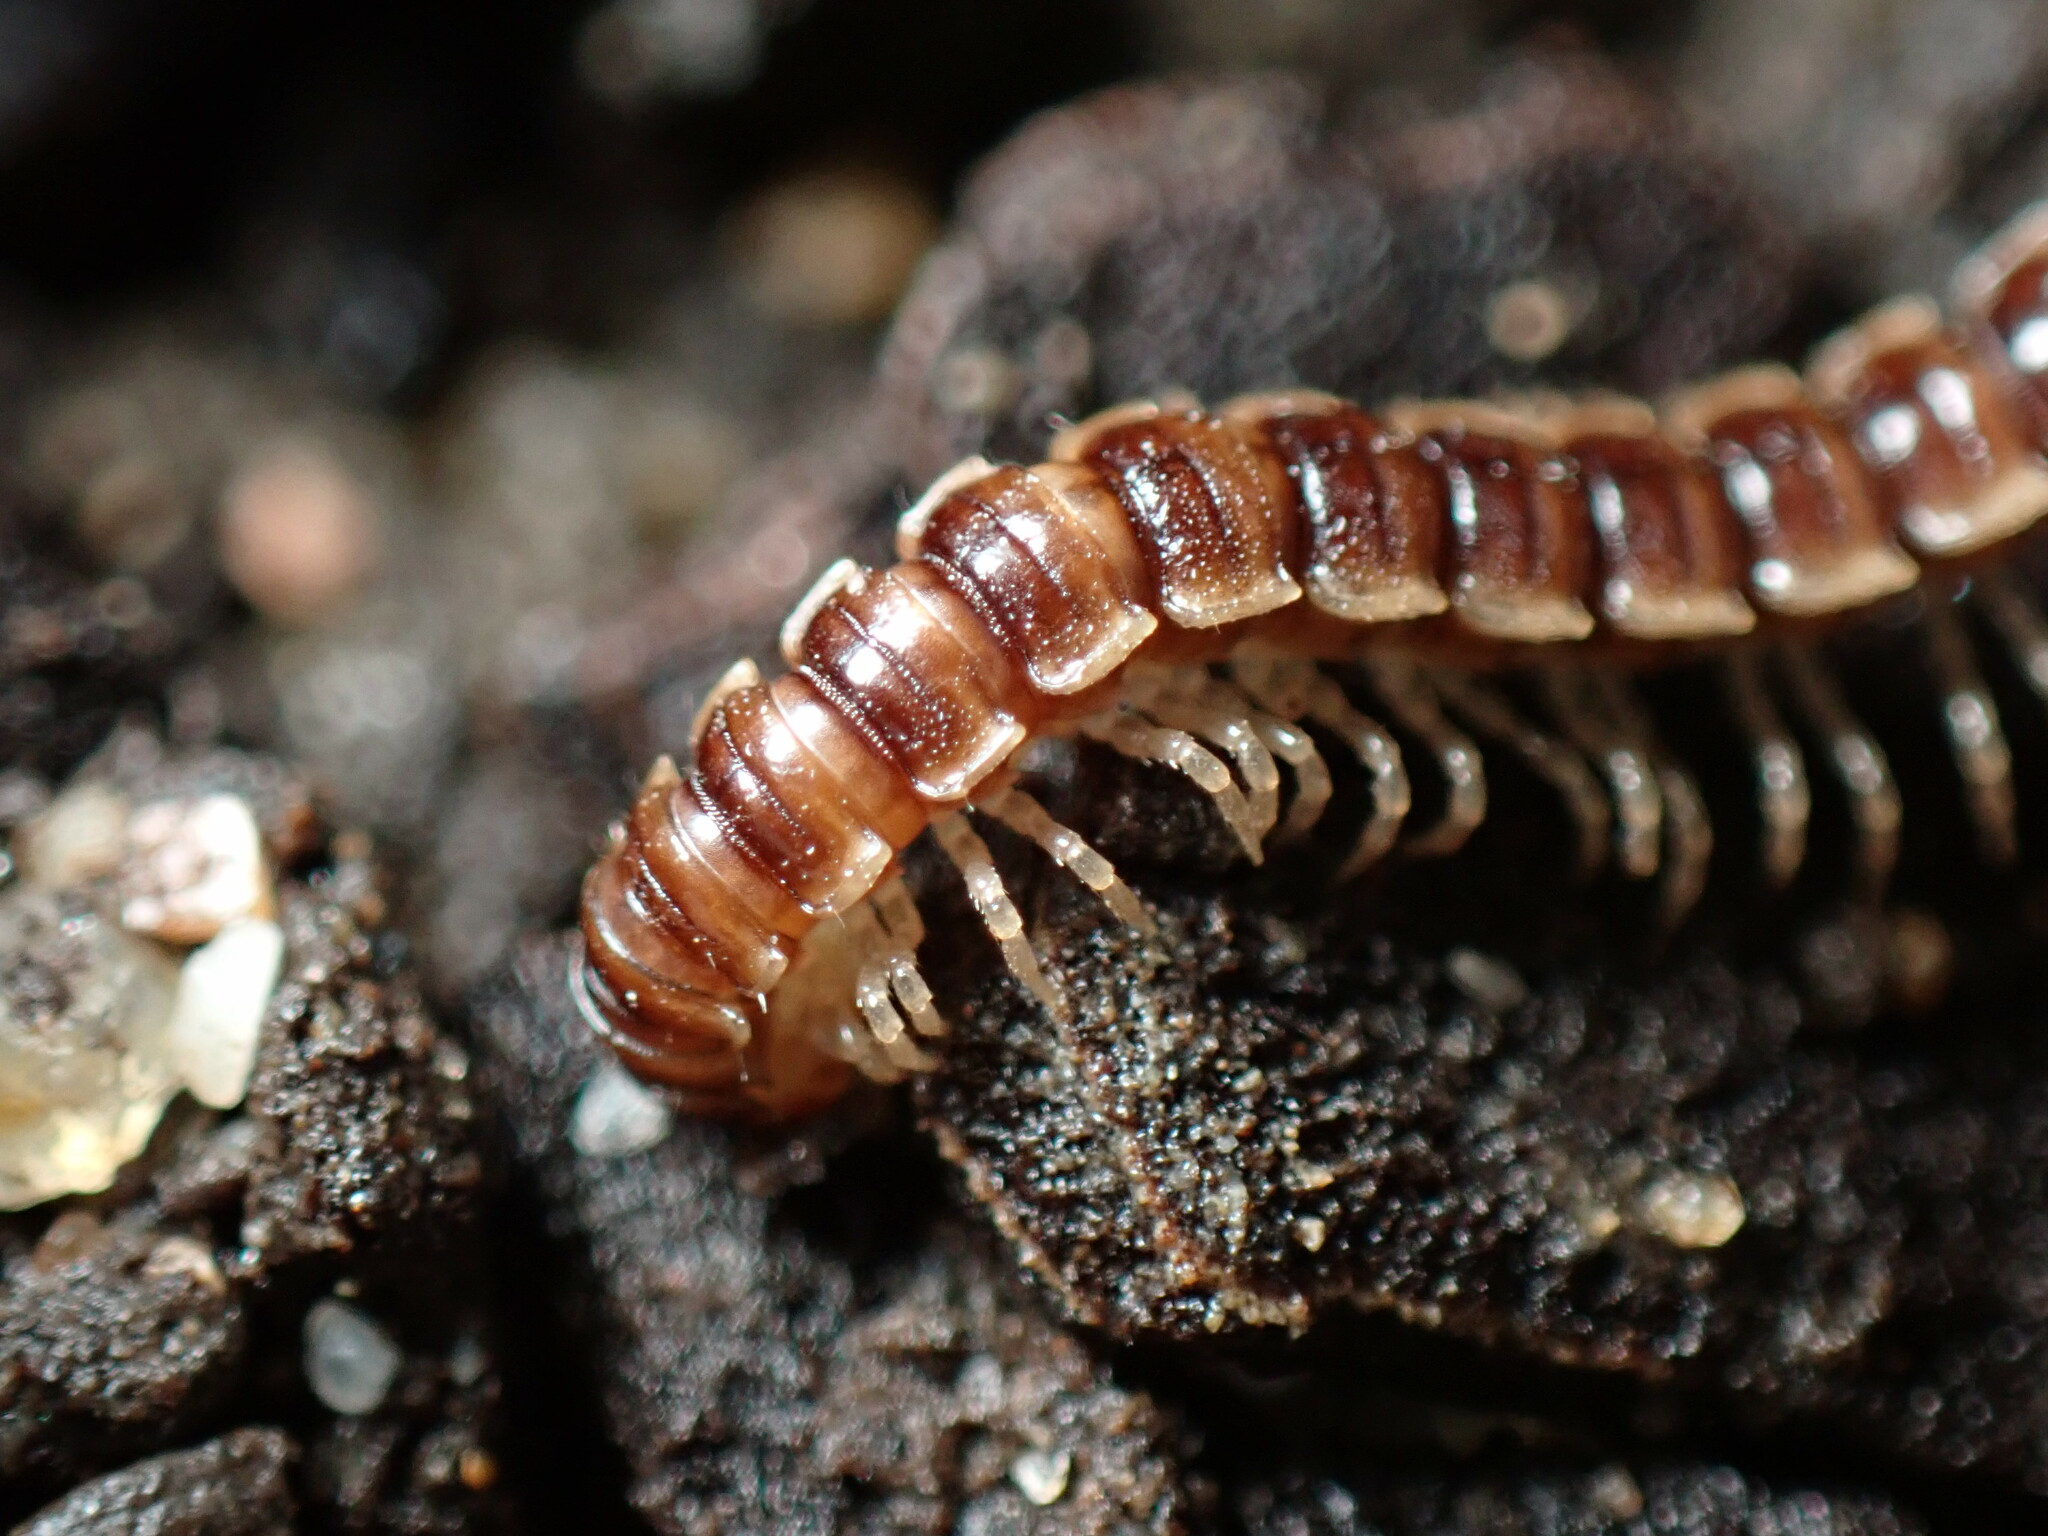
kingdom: Animalia
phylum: Arthropoda
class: Diplopoda
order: Polydesmida
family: Paradoxosomatidae
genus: Oxidus
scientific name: Oxidus gracilis
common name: Greenhouse millipede
